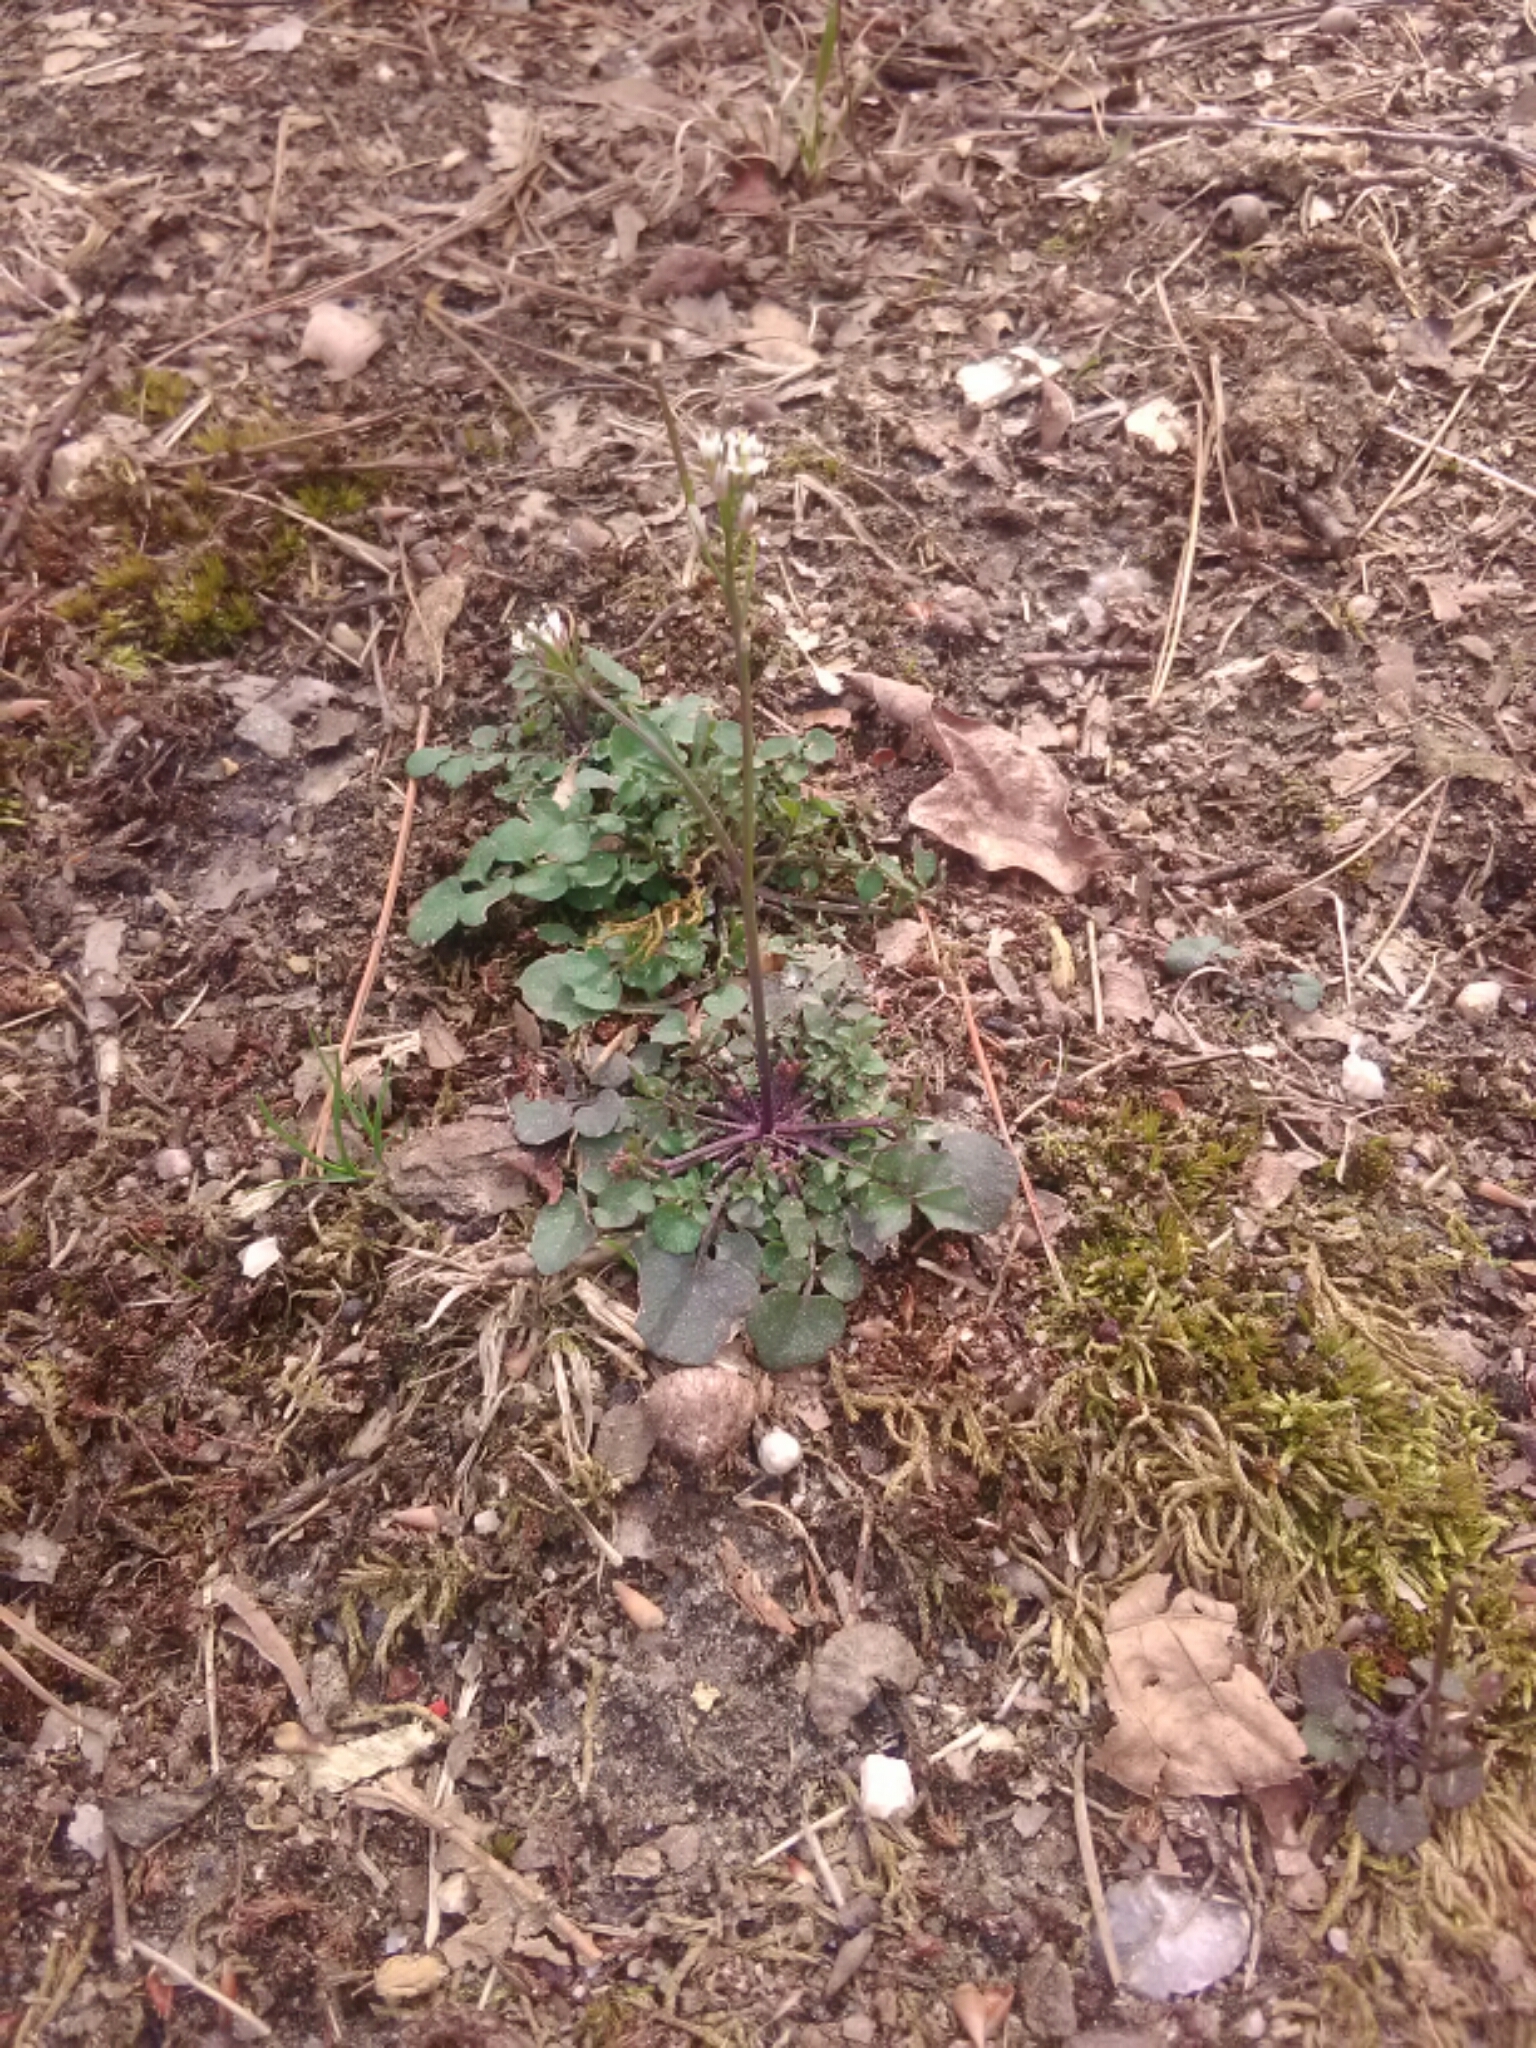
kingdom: Plantae
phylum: Tracheophyta
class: Magnoliopsida
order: Brassicales
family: Brassicaceae
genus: Cardamine
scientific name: Cardamine hirsuta
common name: Hairy bittercress
